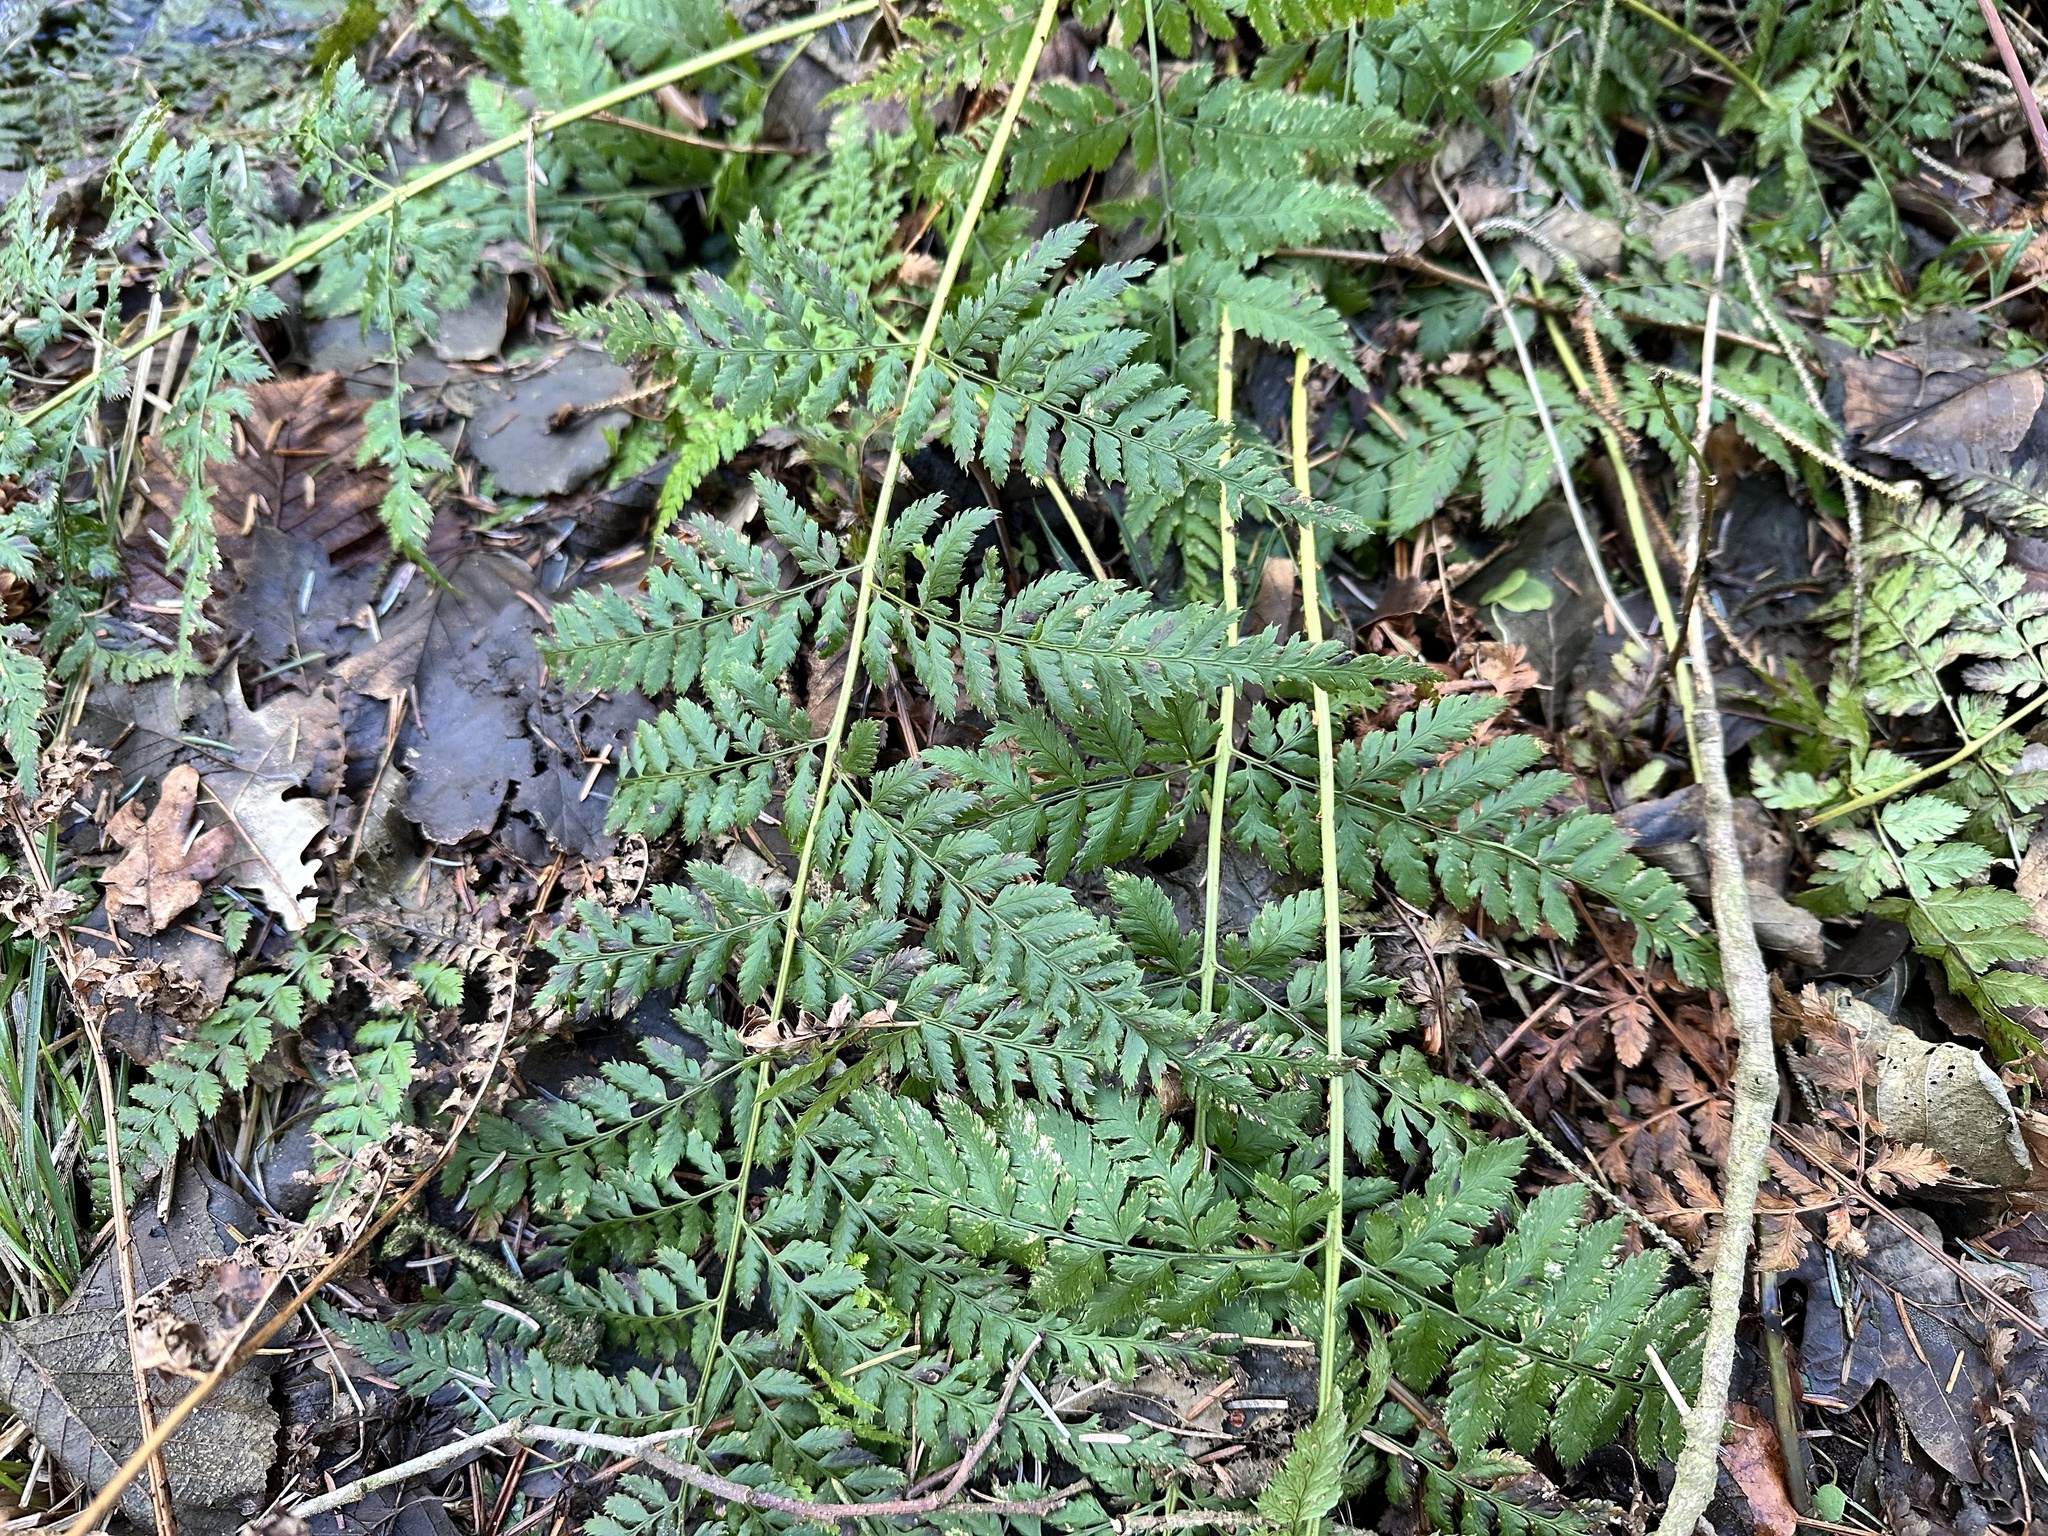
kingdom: Plantae
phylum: Tracheophyta
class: Polypodiopsida
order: Polypodiales
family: Dryopteridaceae
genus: Dryopteris
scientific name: Dryopteris dilatata
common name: Broad buckler-fern
